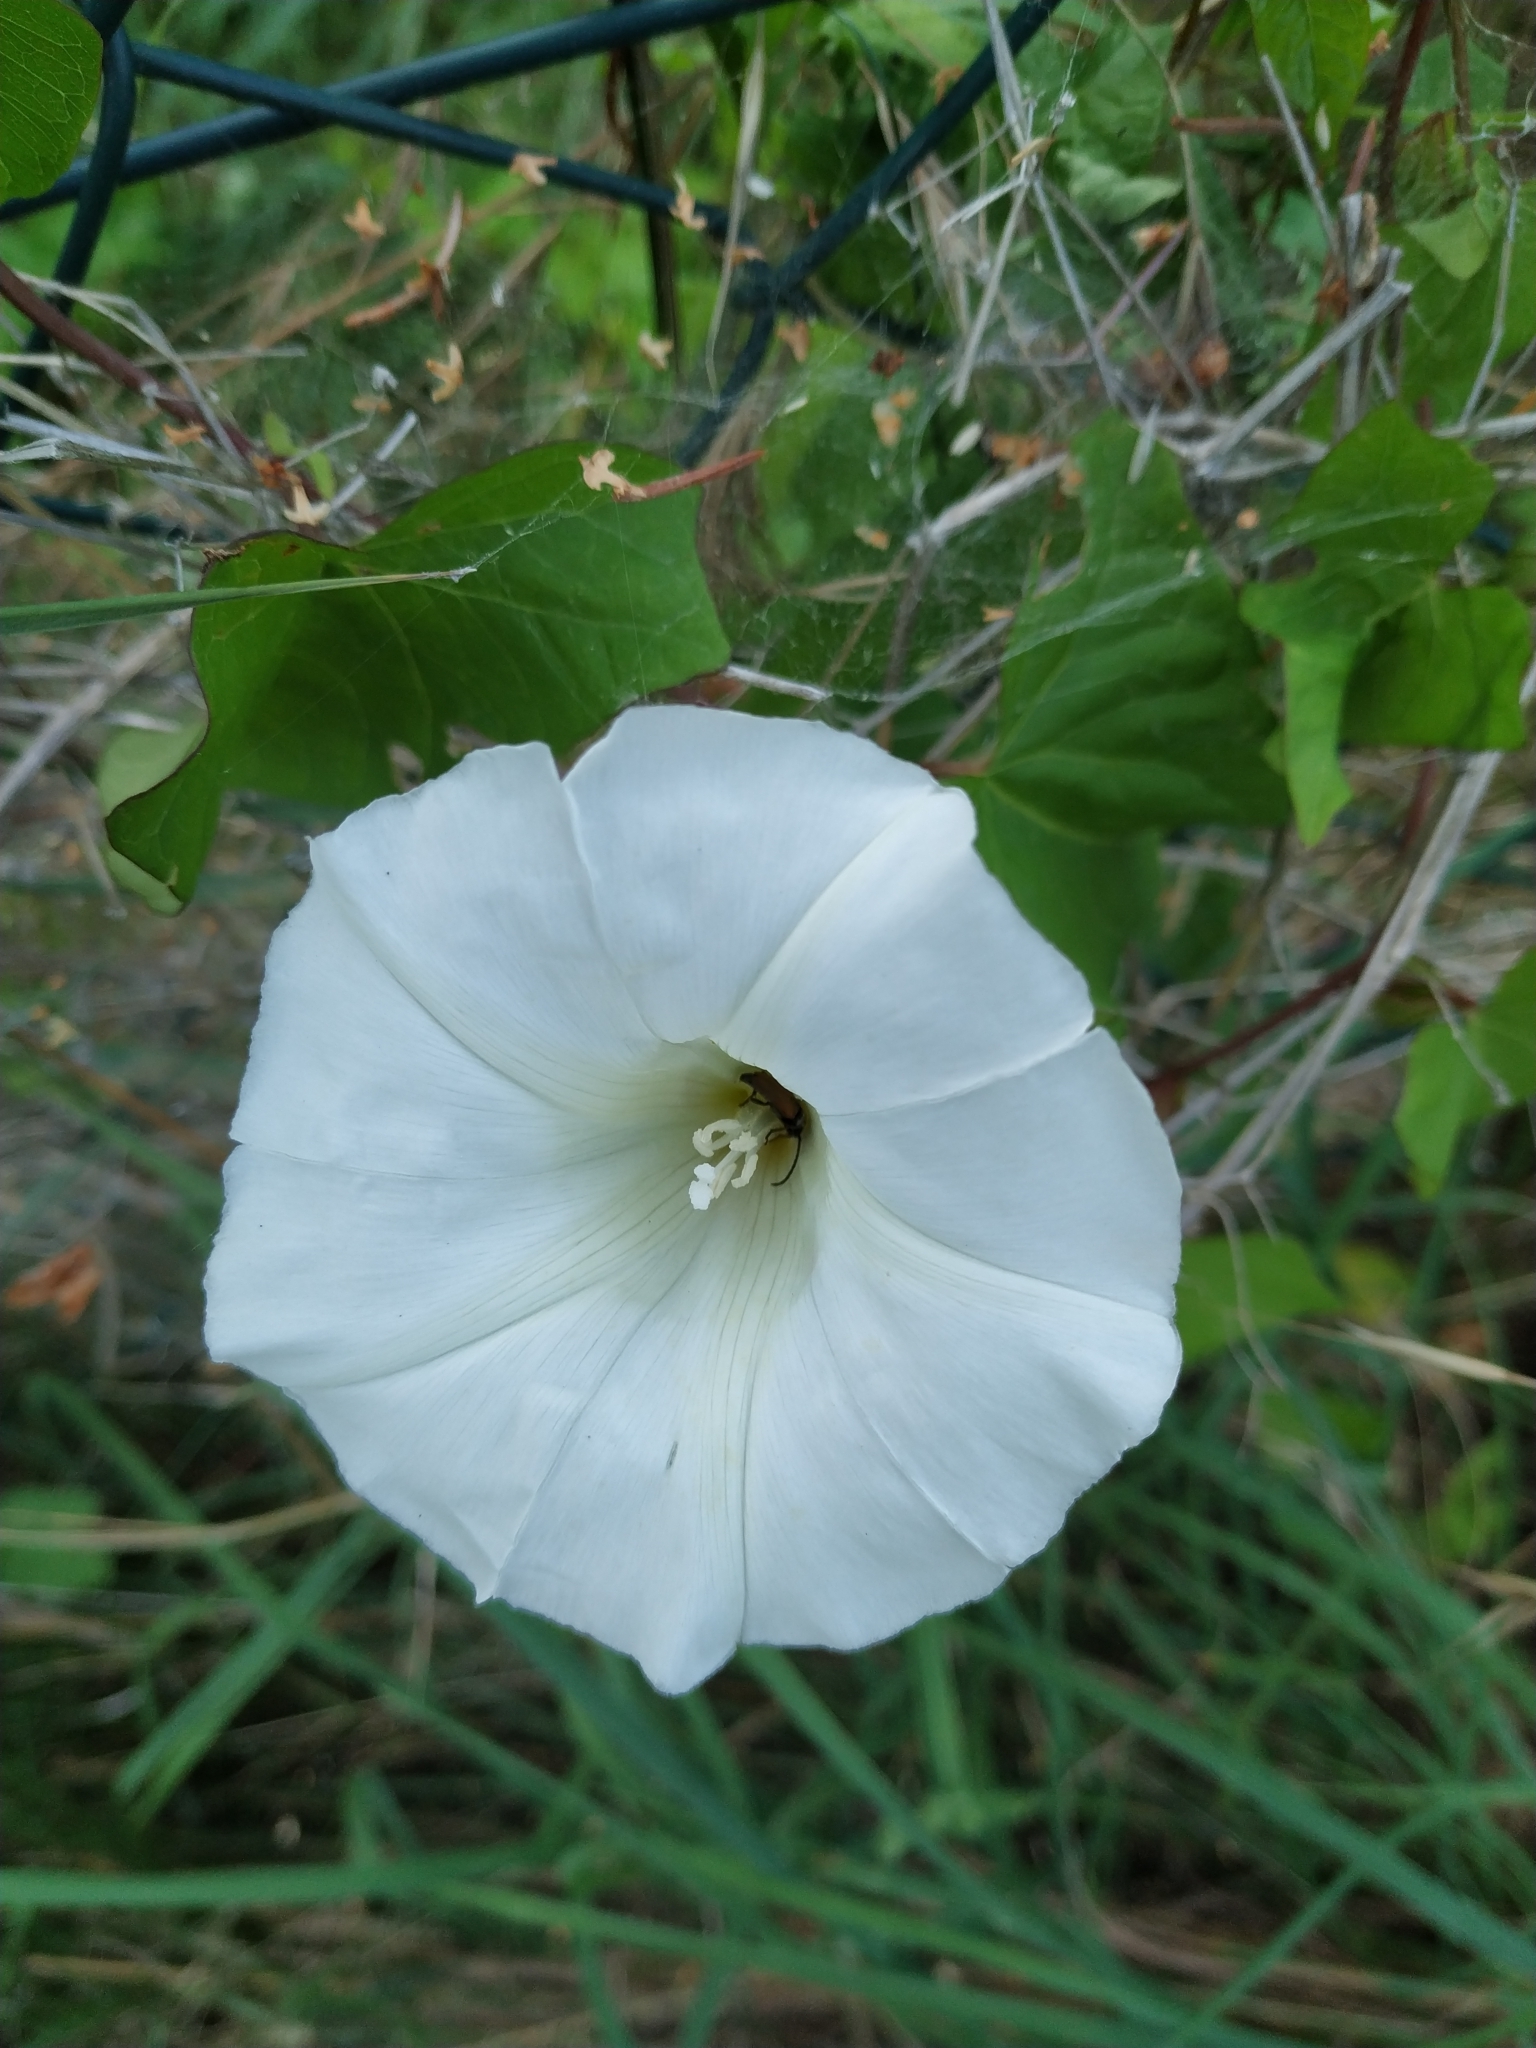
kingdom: Plantae
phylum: Tracheophyta
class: Magnoliopsida
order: Solanales
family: Convolvulaceae
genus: Calystegia
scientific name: Calystegia sepium
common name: Hedge bindweed
